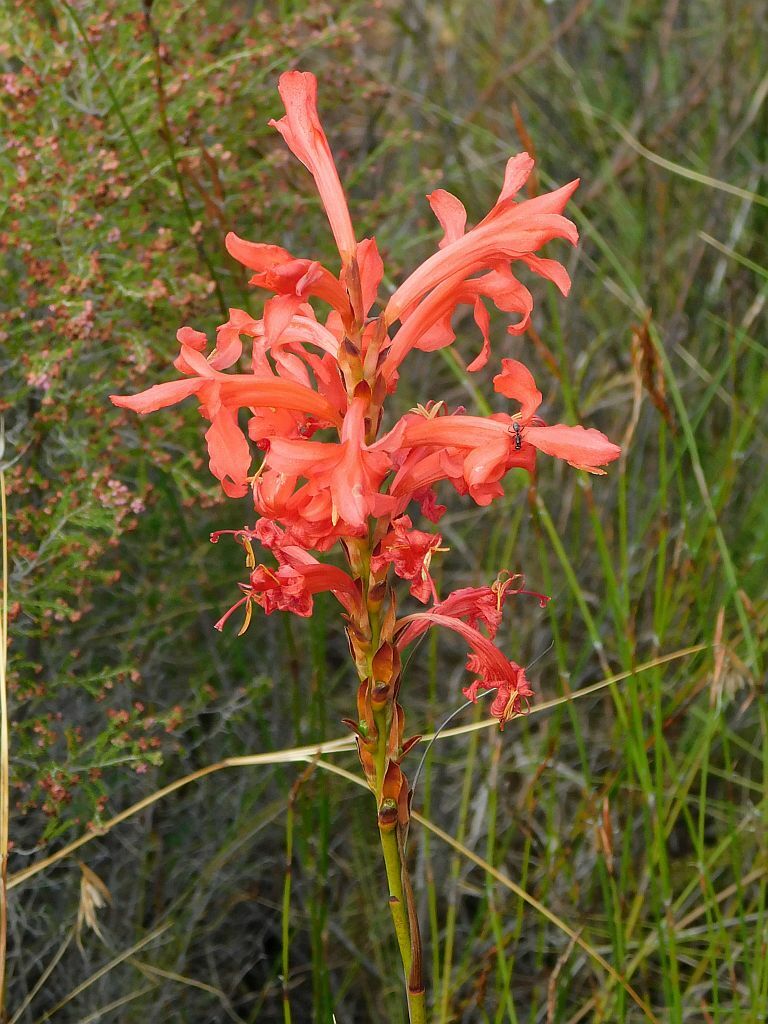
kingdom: Plantae
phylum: Tracheophyta
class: Liliopsida
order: Asparagales
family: Iridaceae
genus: Tritoniopsis
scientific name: Tritoniopsis triticea
